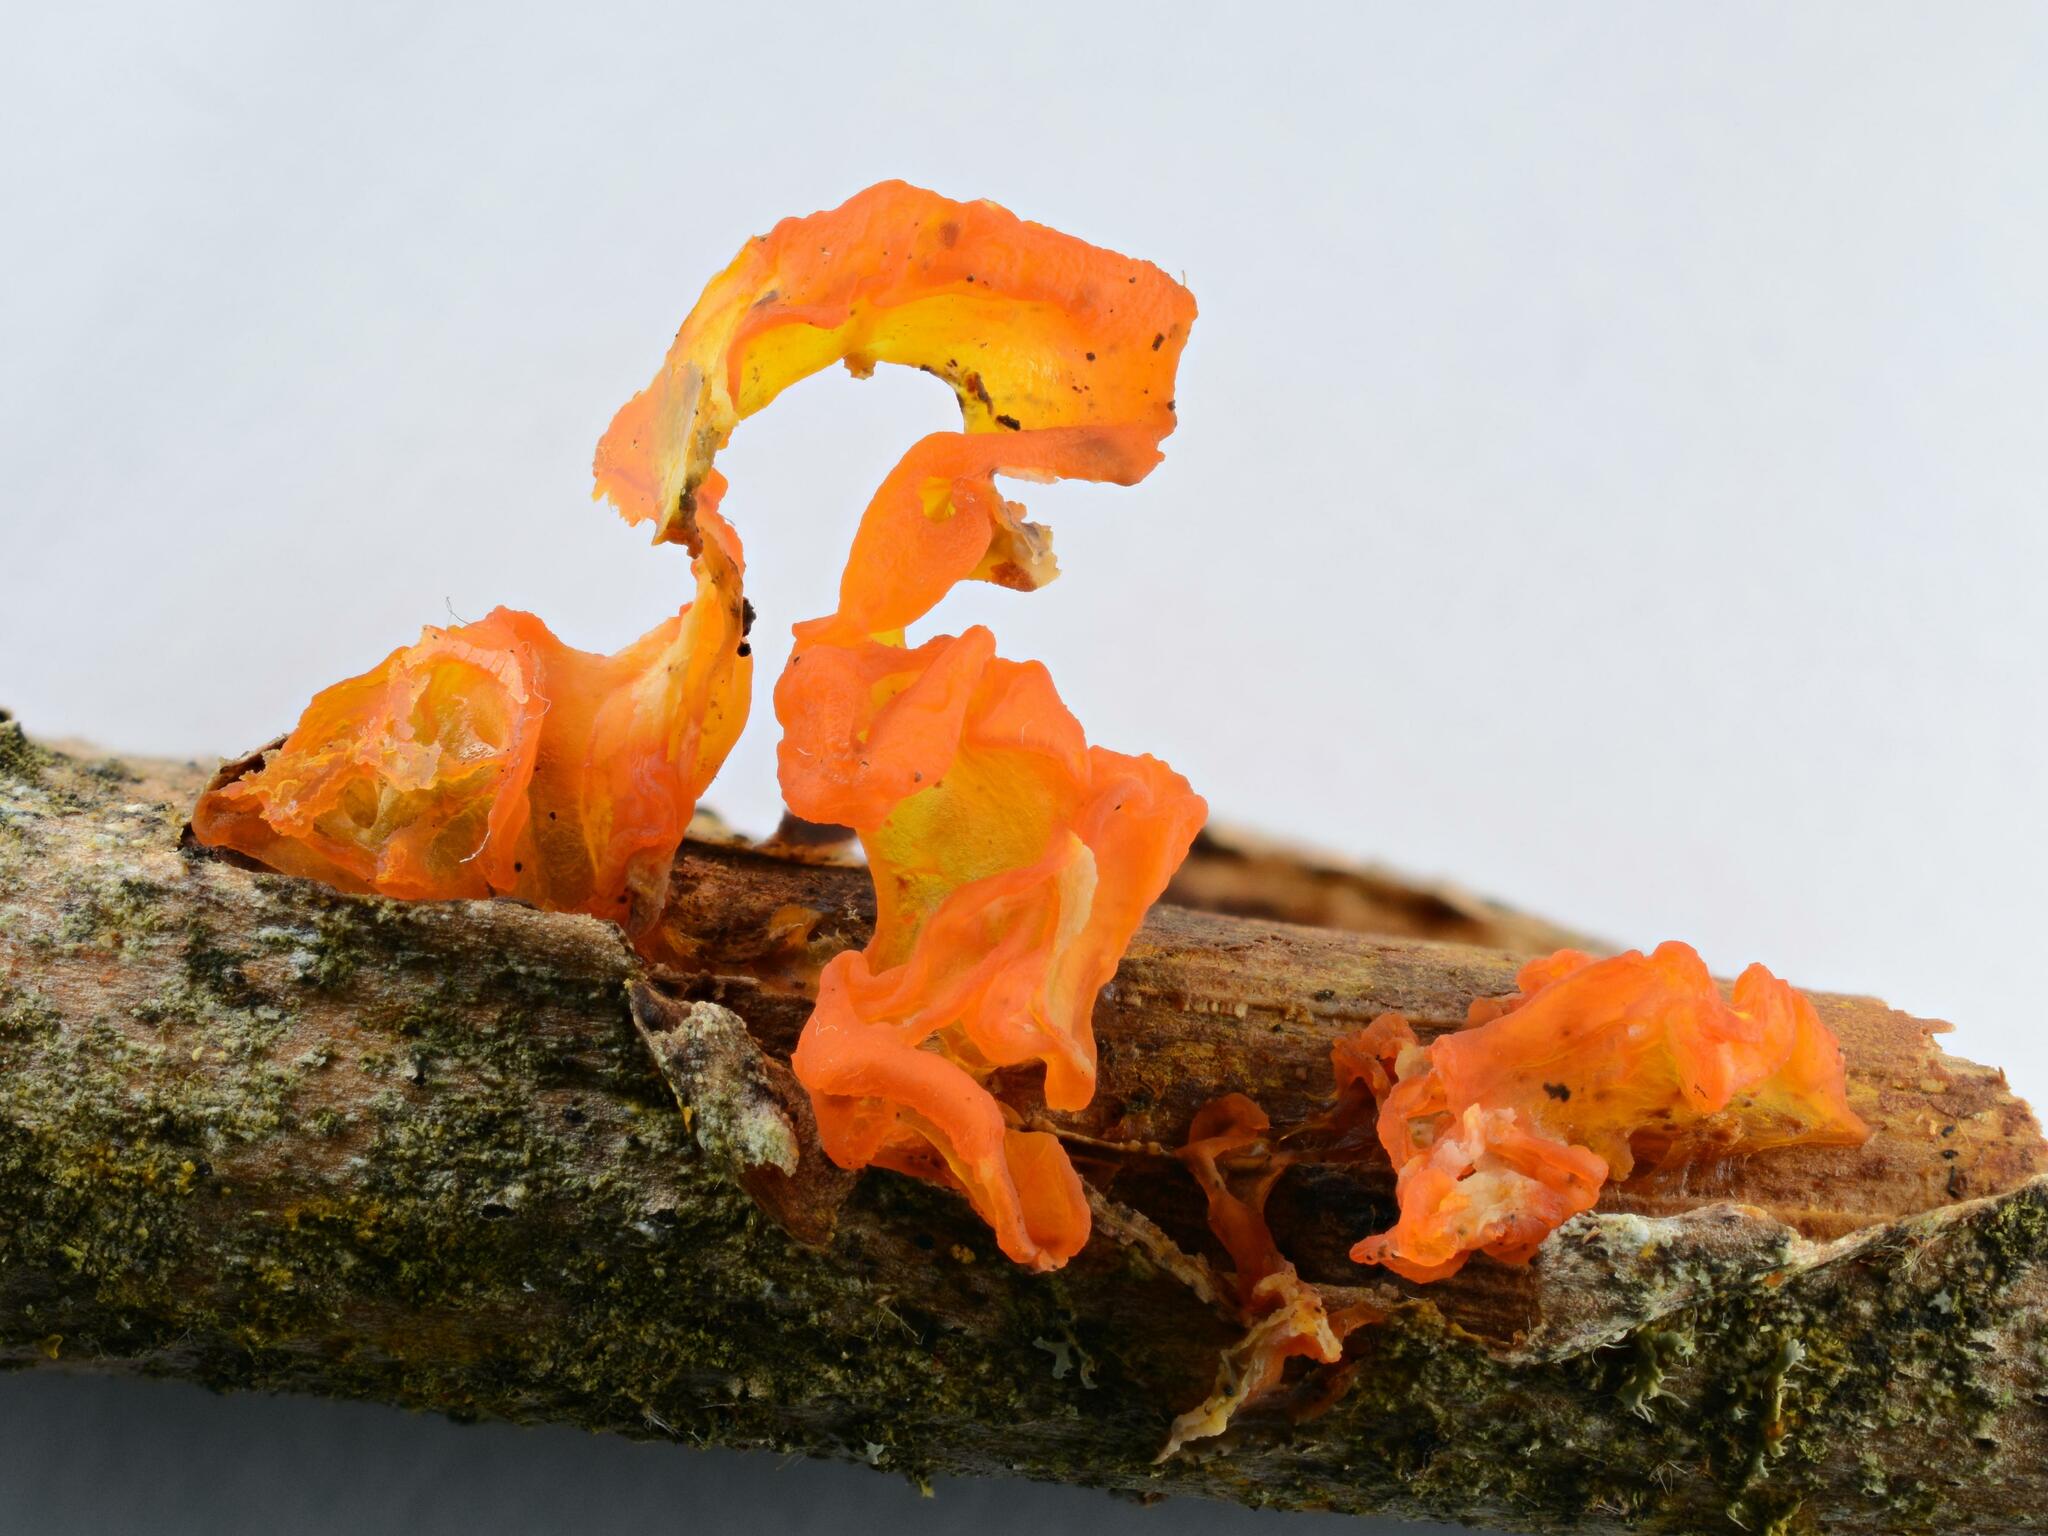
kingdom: Fungi
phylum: Basidiomycota
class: Tremellomycetes
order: Tremellales
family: Tremellaceae
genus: Tremella
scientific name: Tremella mesenterica
